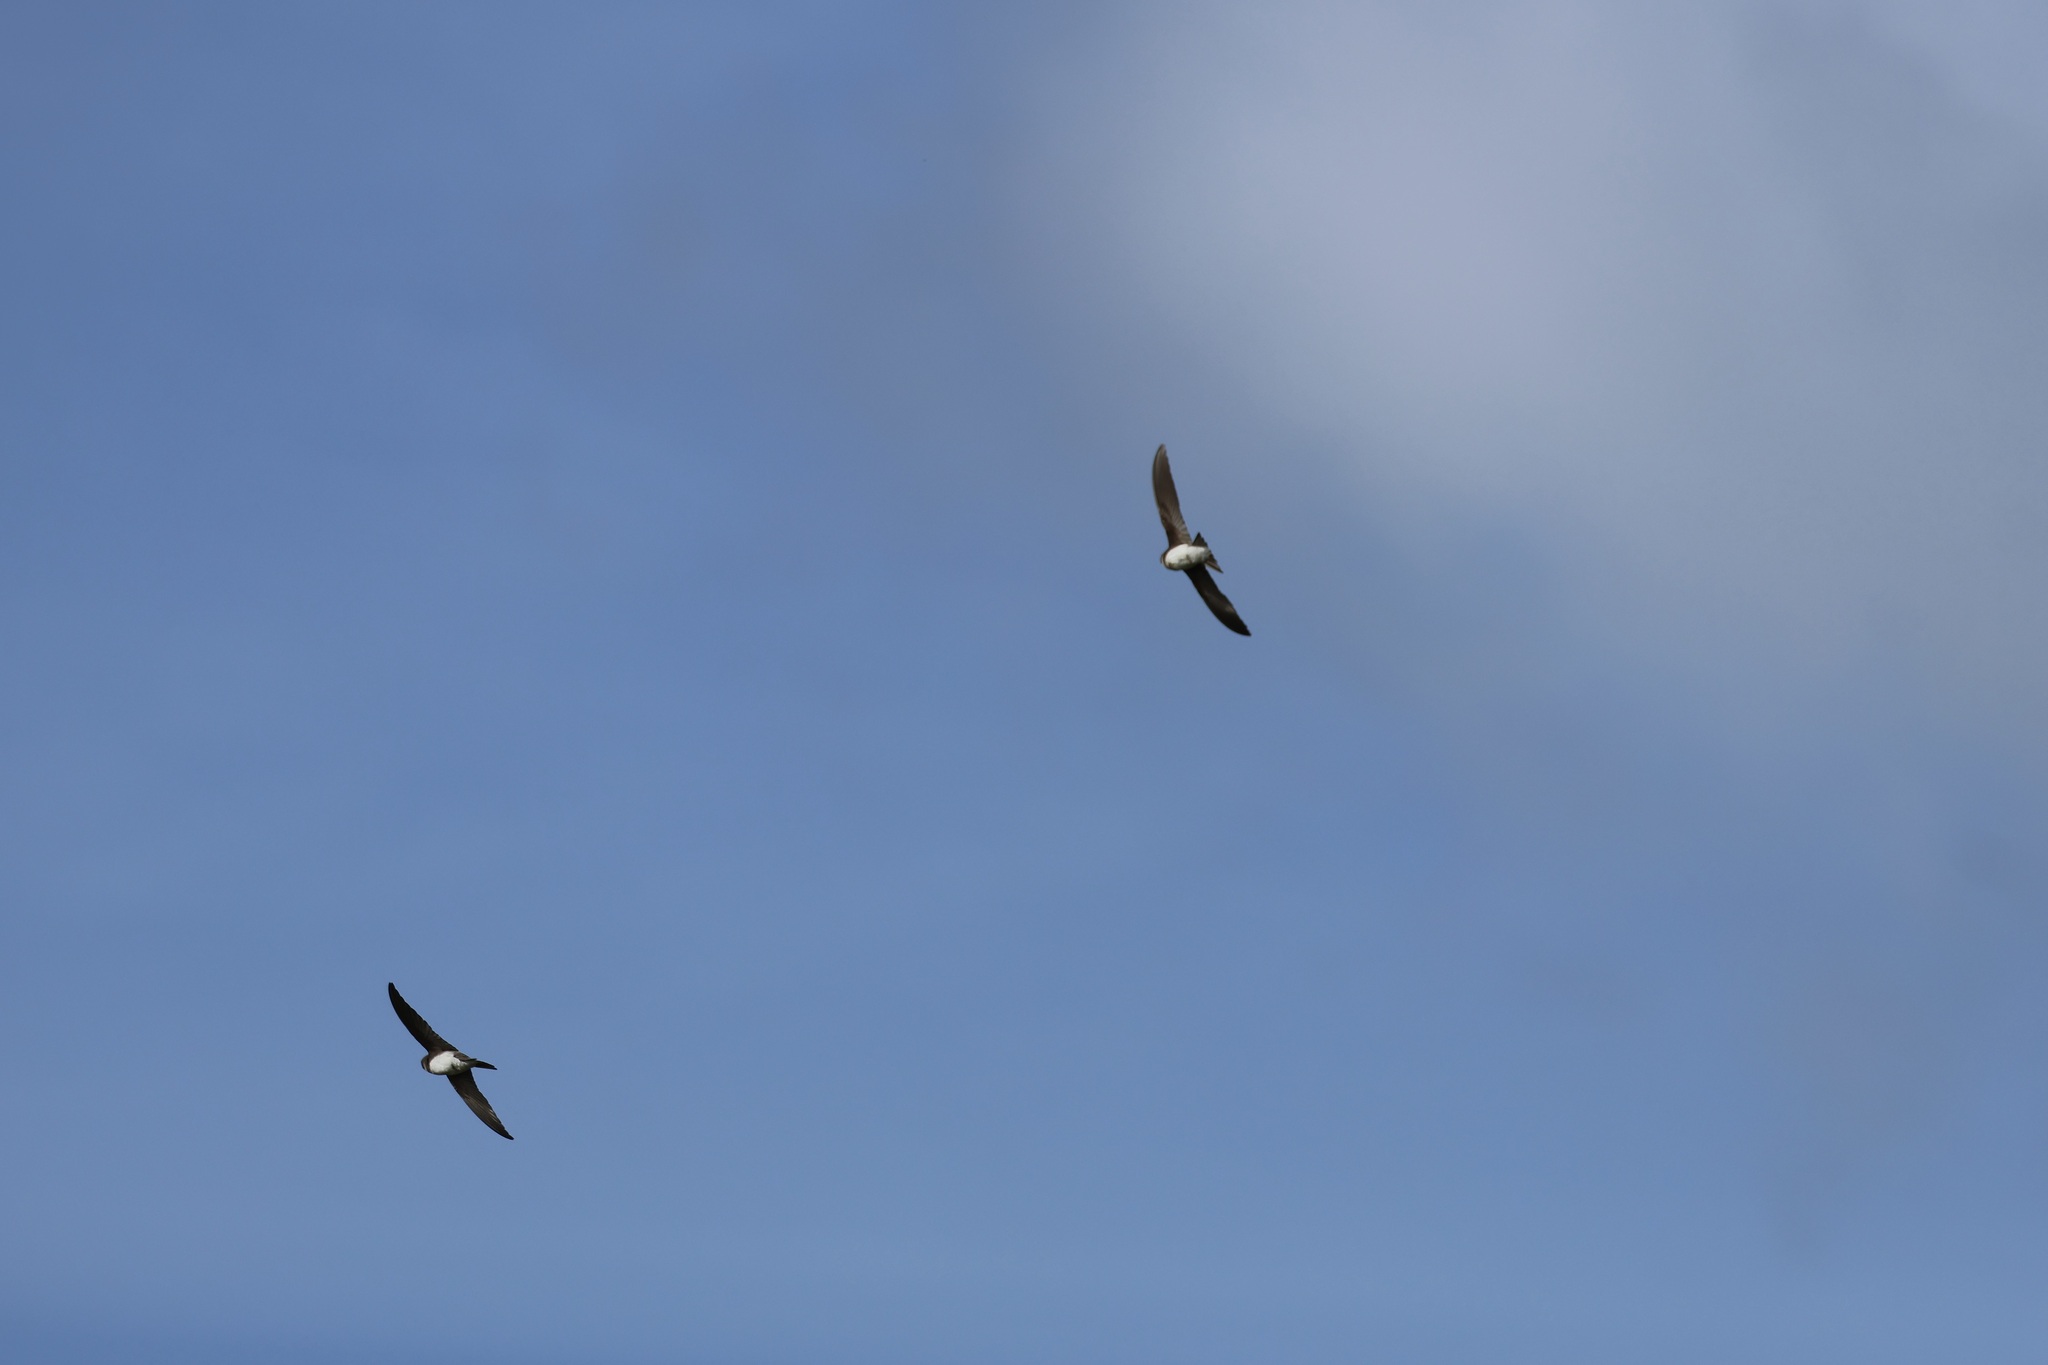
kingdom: Animalia
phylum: Chordata
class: Aves
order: Passeriformes
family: Hirundinidae
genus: Delichon
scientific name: Delichon urbicum
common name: Common house martin
